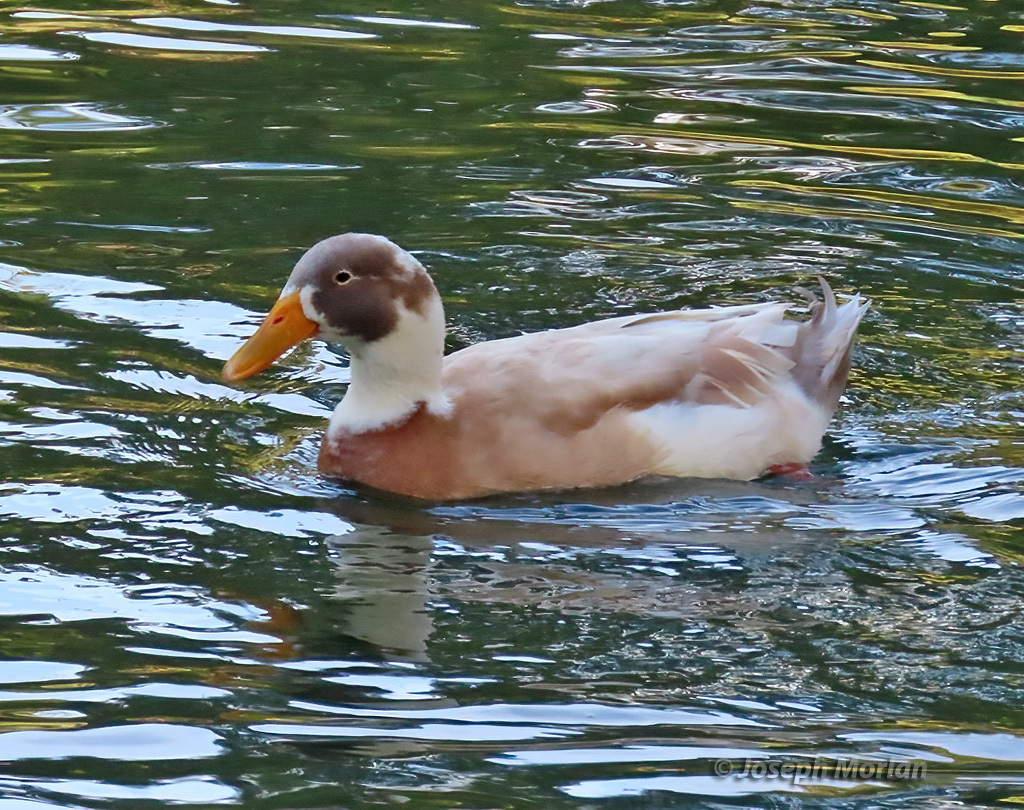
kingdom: Animalia
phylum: Chordata
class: Aves
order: Anseriformes
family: Anatidae
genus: Anas
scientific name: Anas platyrhynchos
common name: Mallard
